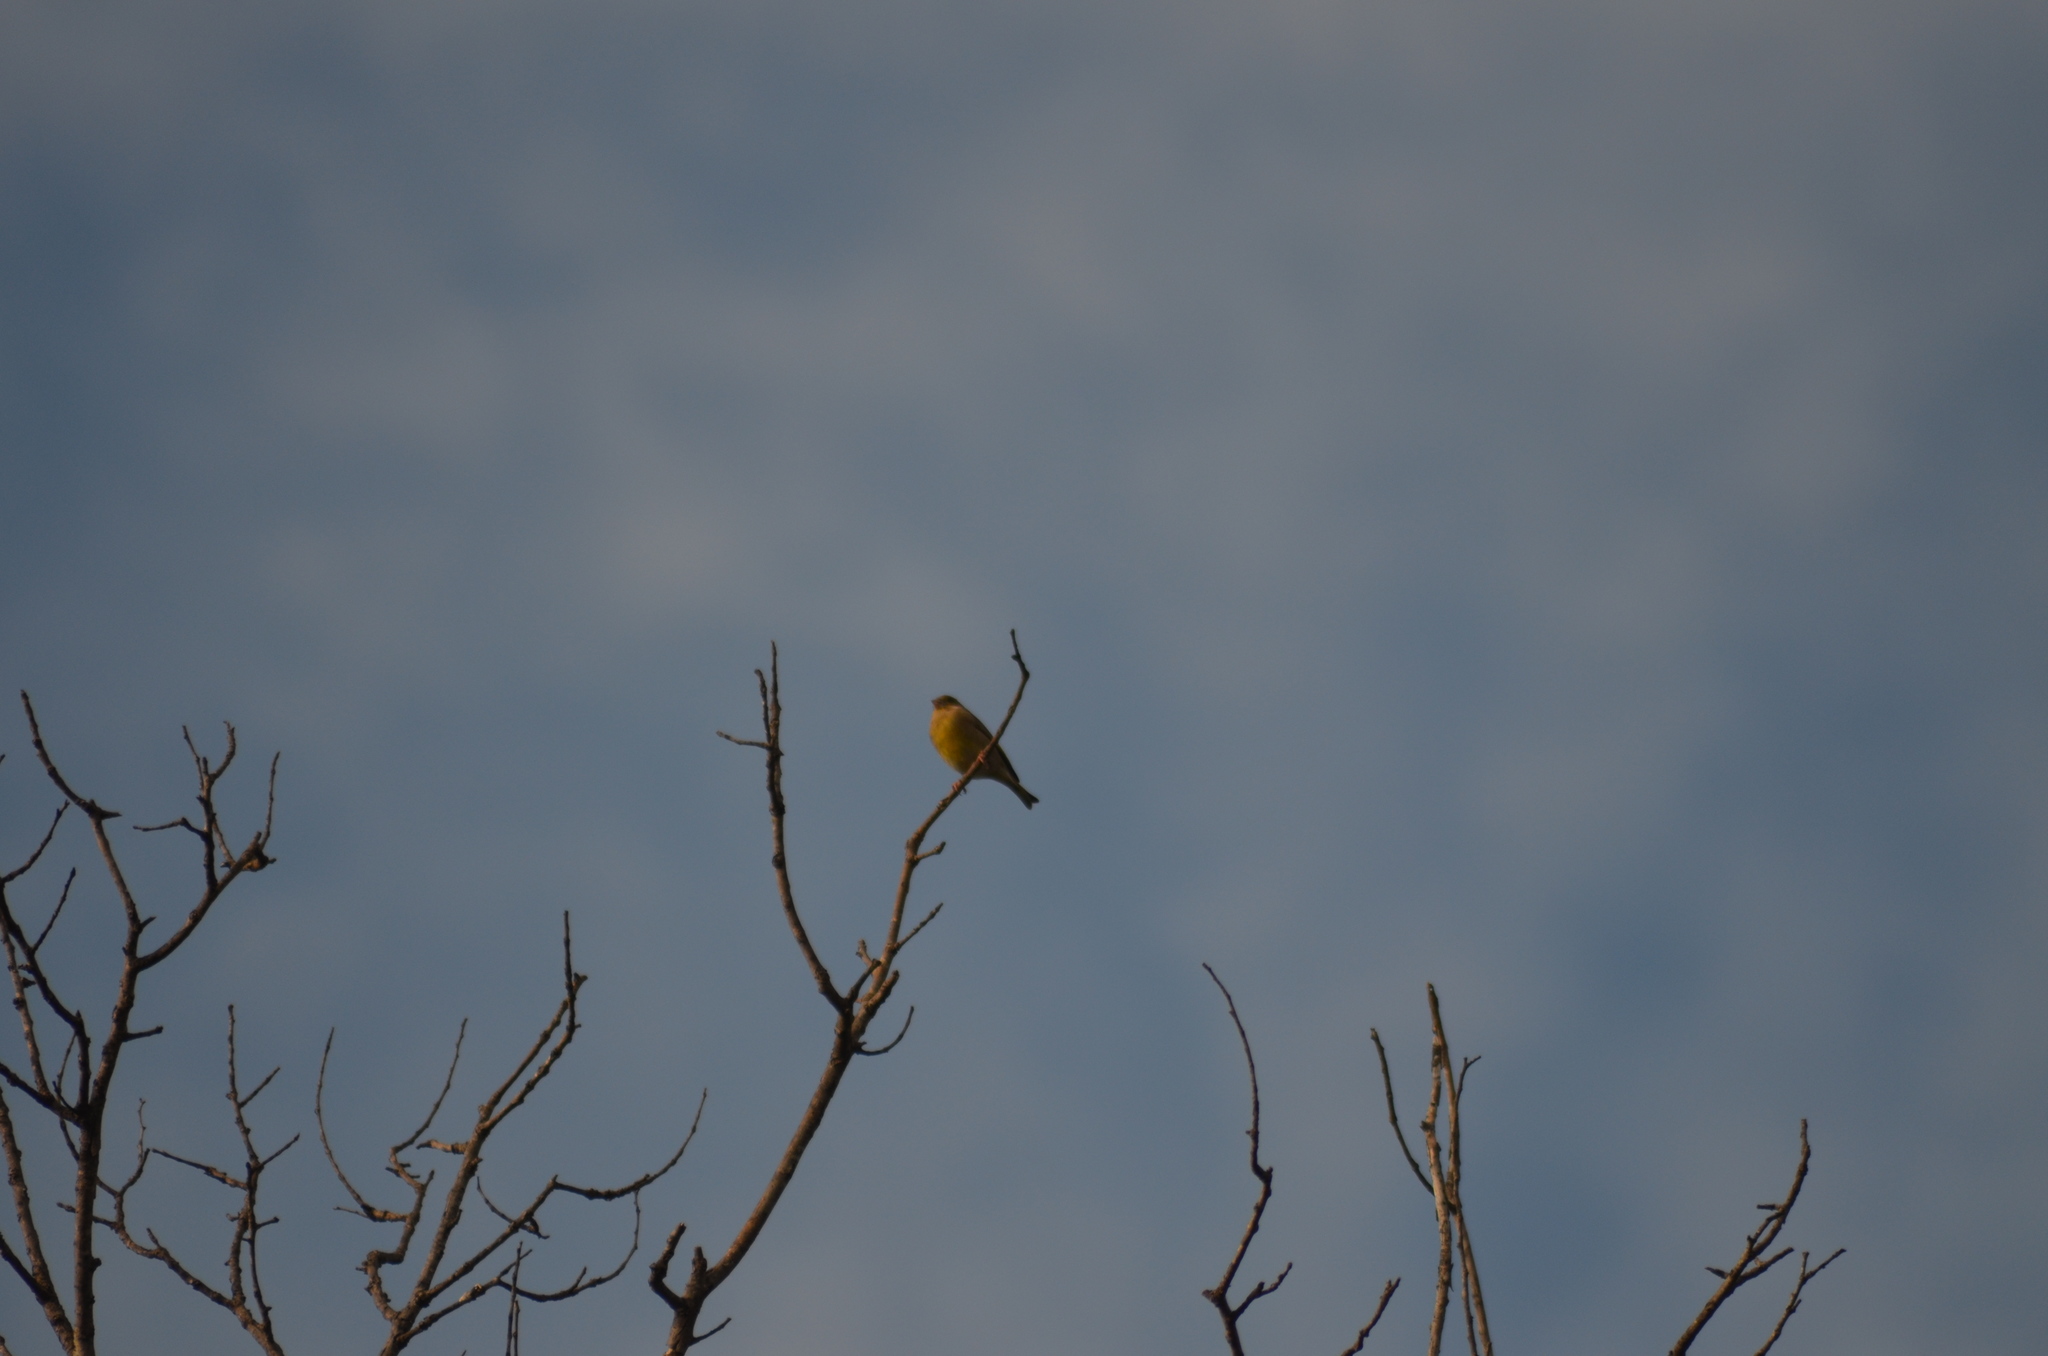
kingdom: Plantae
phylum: Tracheophyta
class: Liliopsida
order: Poales
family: Poaceae
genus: Chloris
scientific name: Chloris chloris
